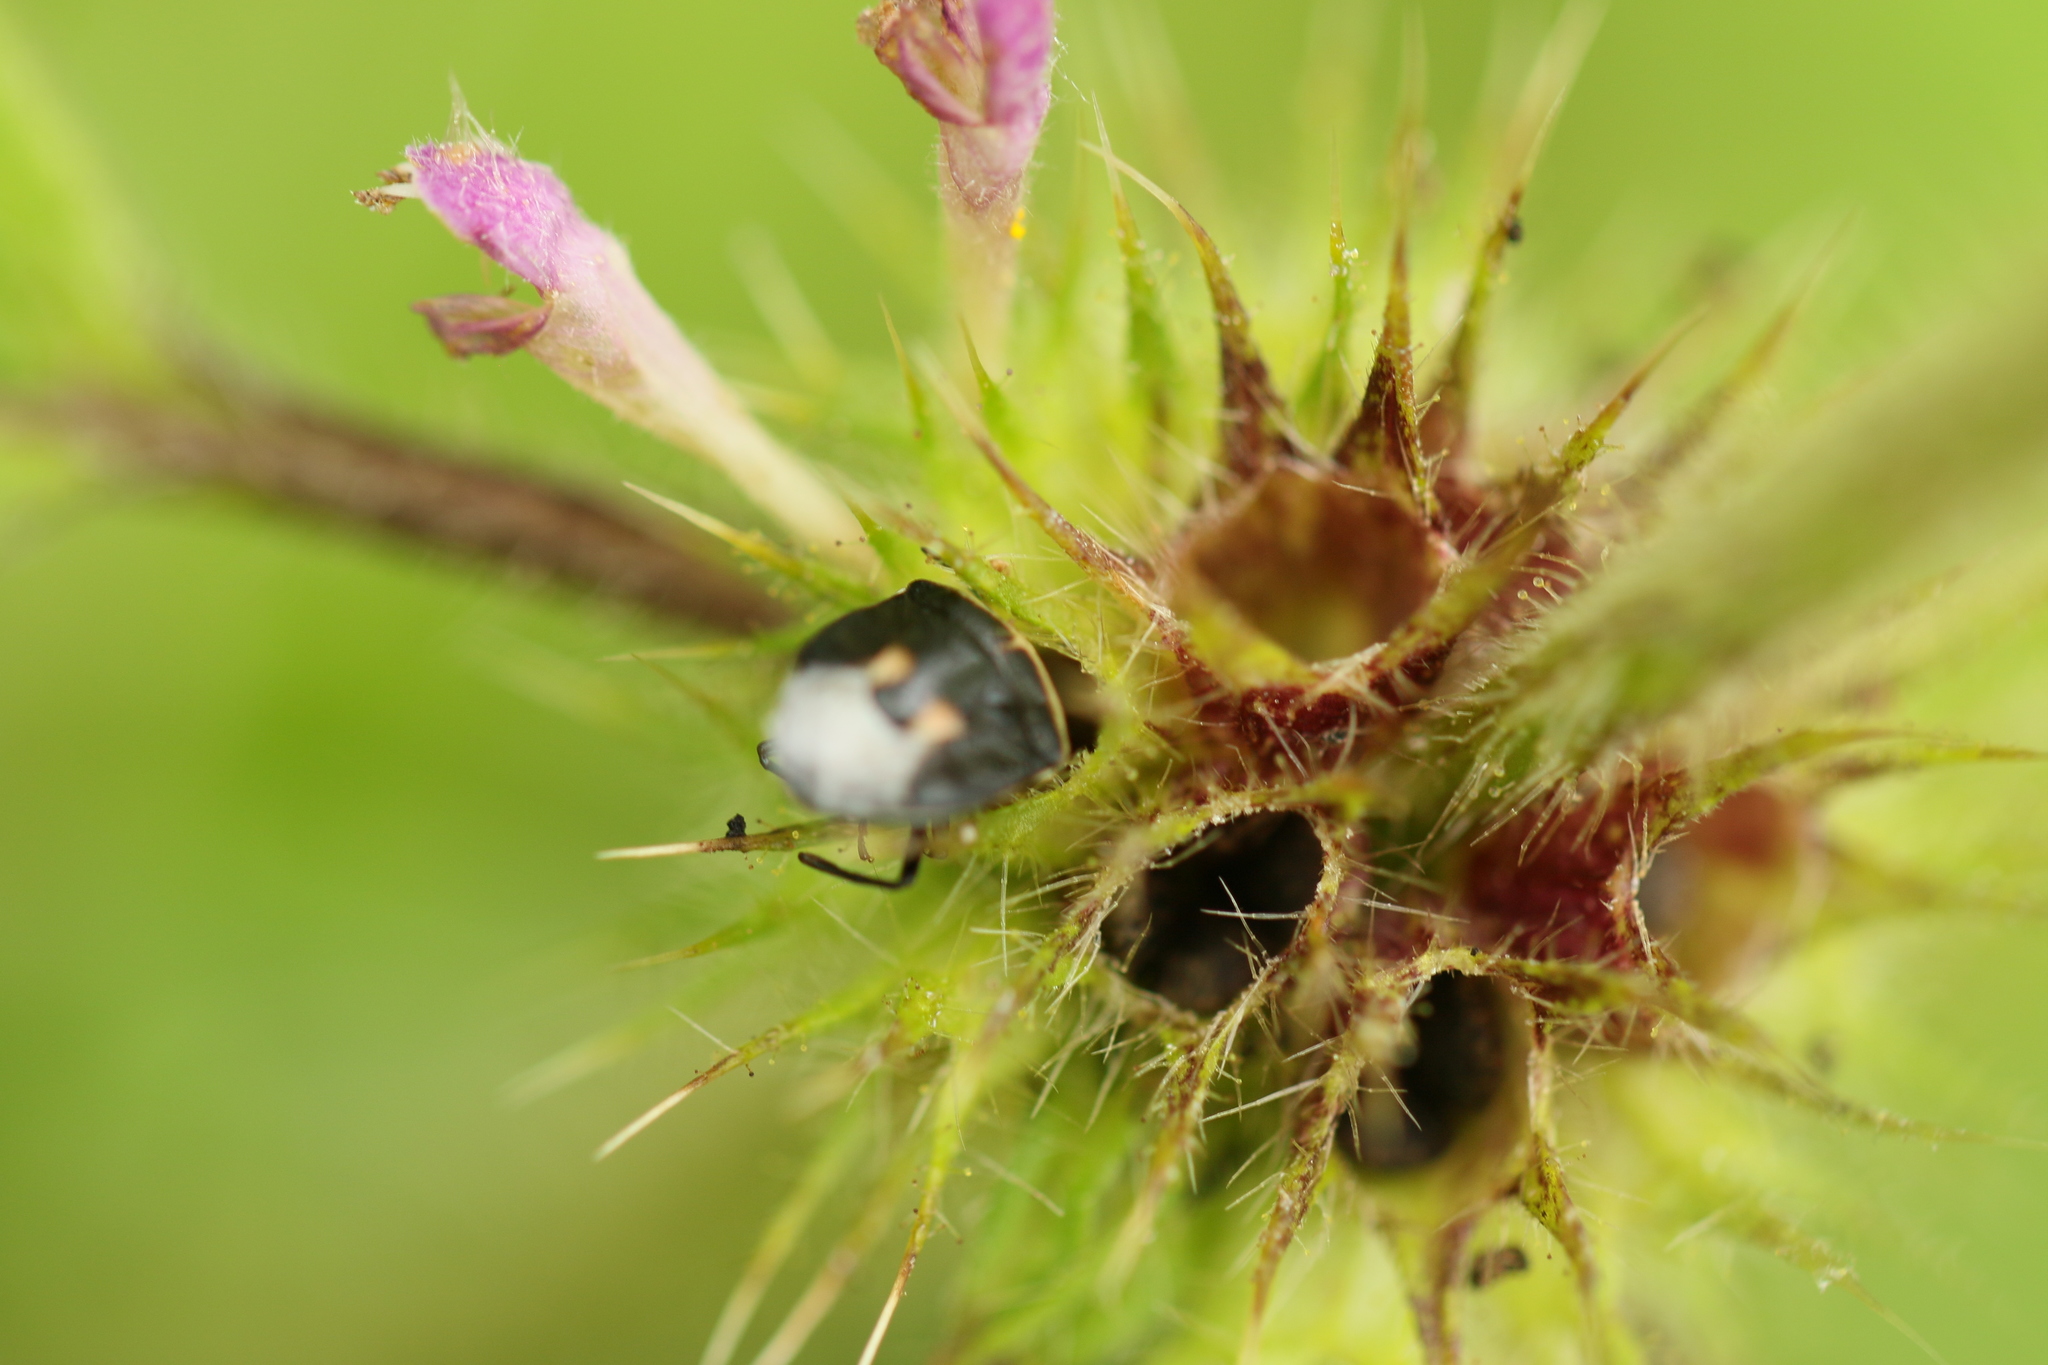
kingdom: Animalia
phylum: Arthropoda
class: Insecta
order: Hemiptera
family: Pentatomidae
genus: Cosmopepla
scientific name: Cosmopepla lintneriana
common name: Twice-stabbed stink bug
